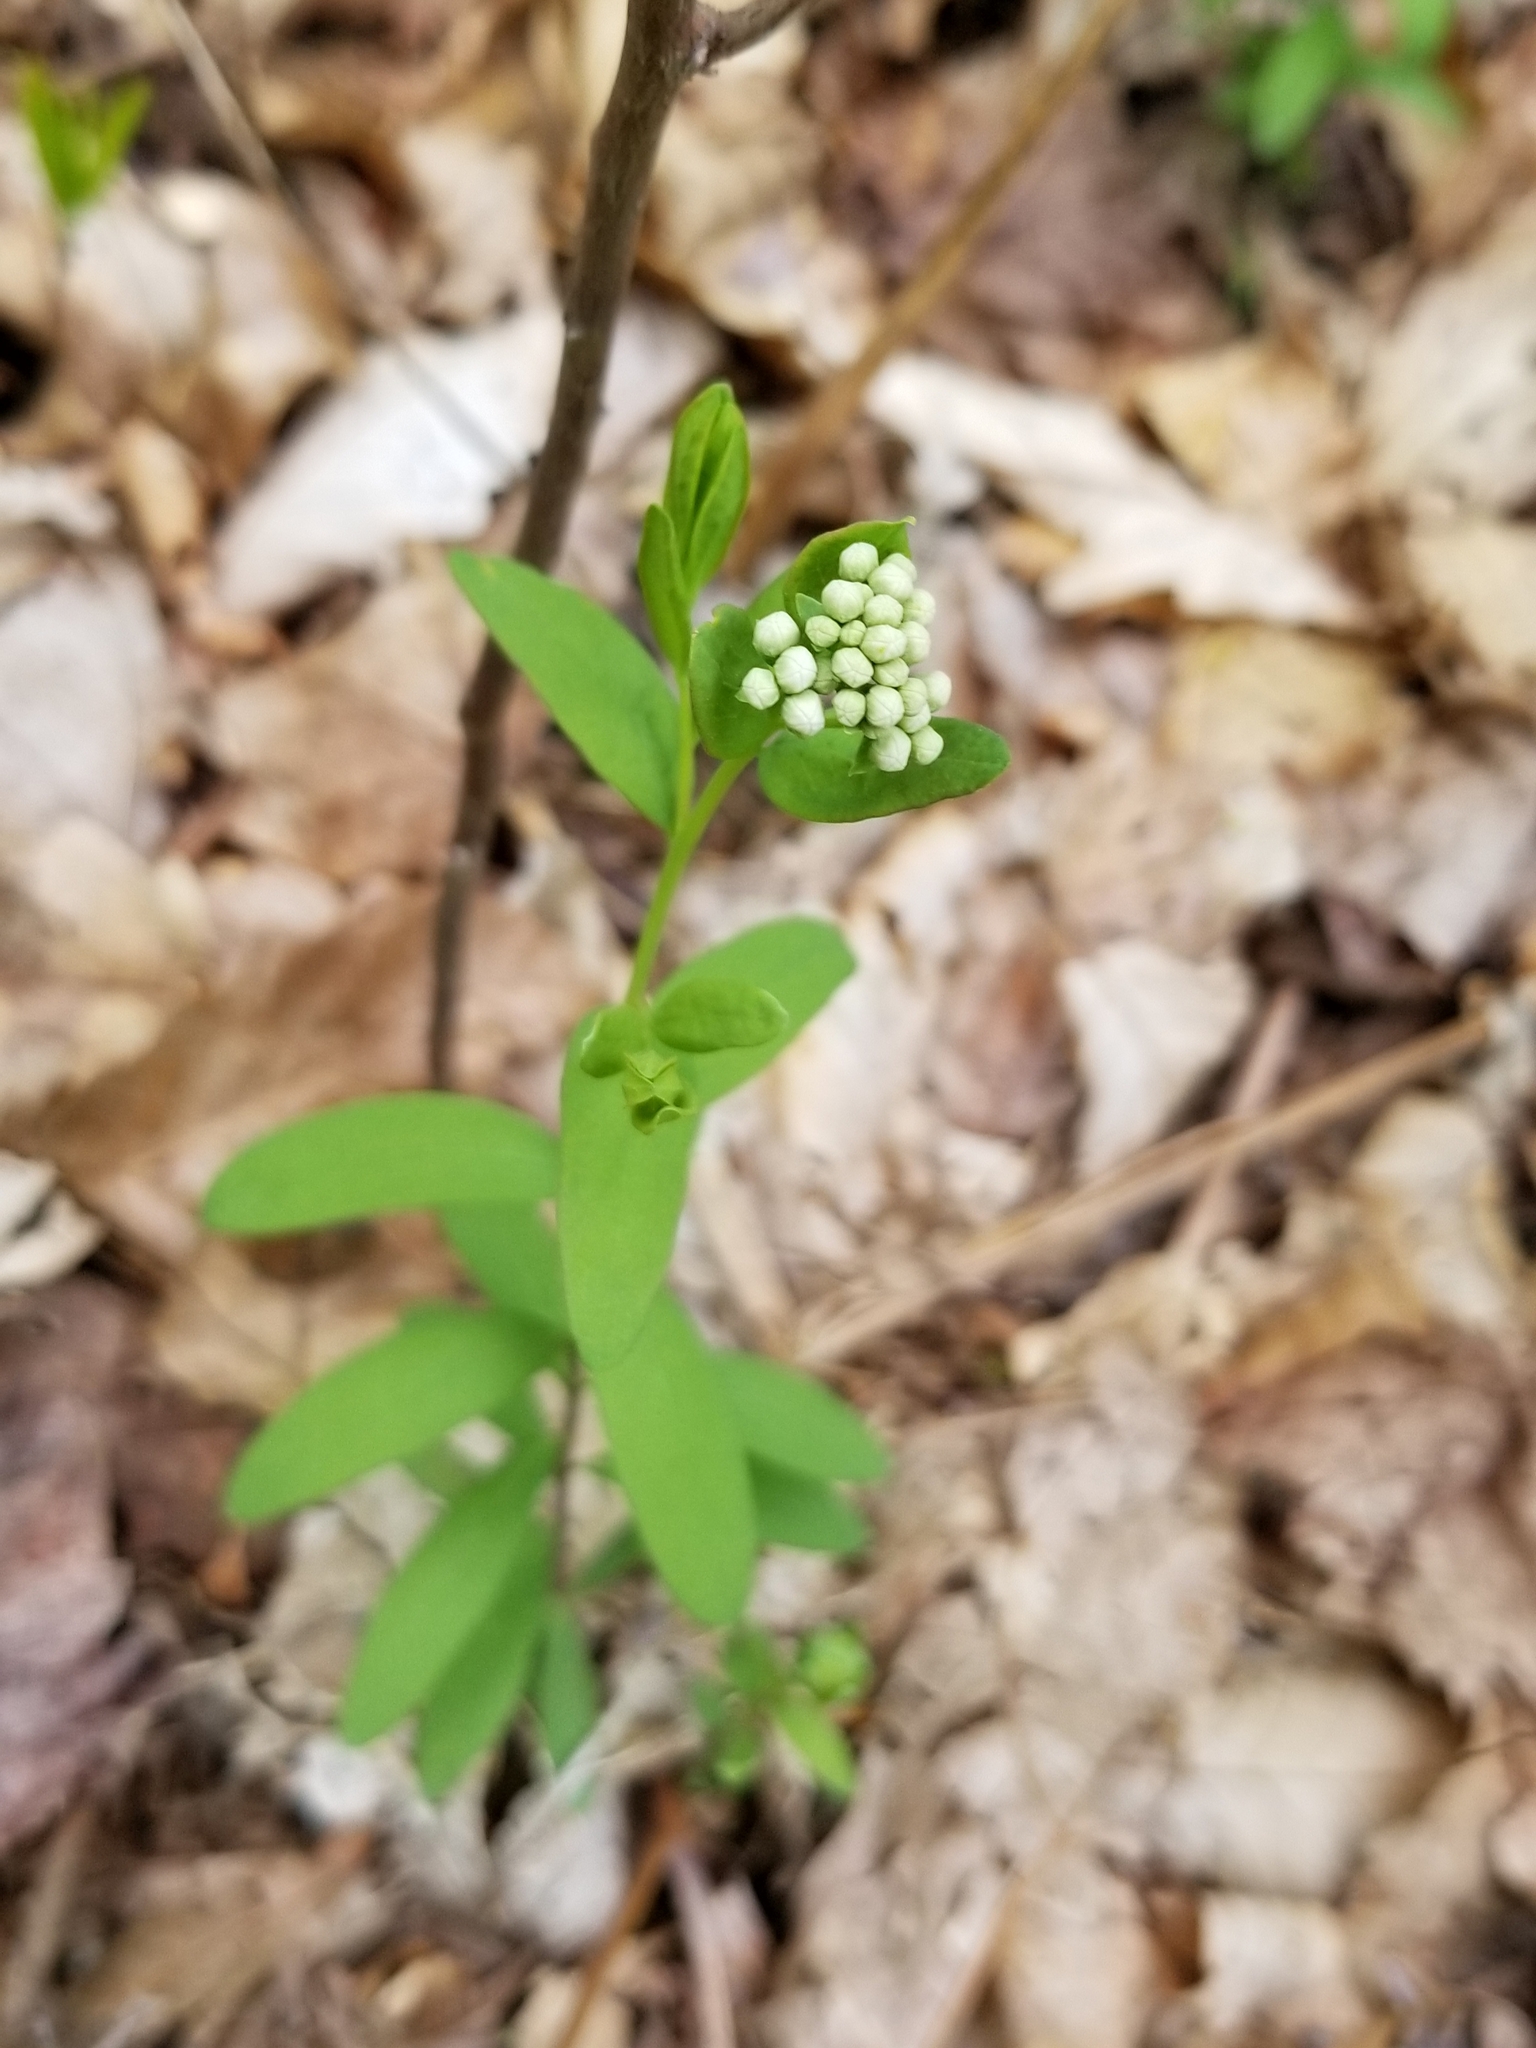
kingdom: Plantae
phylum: Tracheophyta
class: Magnoliopsida
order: Santalales
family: Comandraceae
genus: Comandra
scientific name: Comandra umbellata
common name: Bastard toadflax
